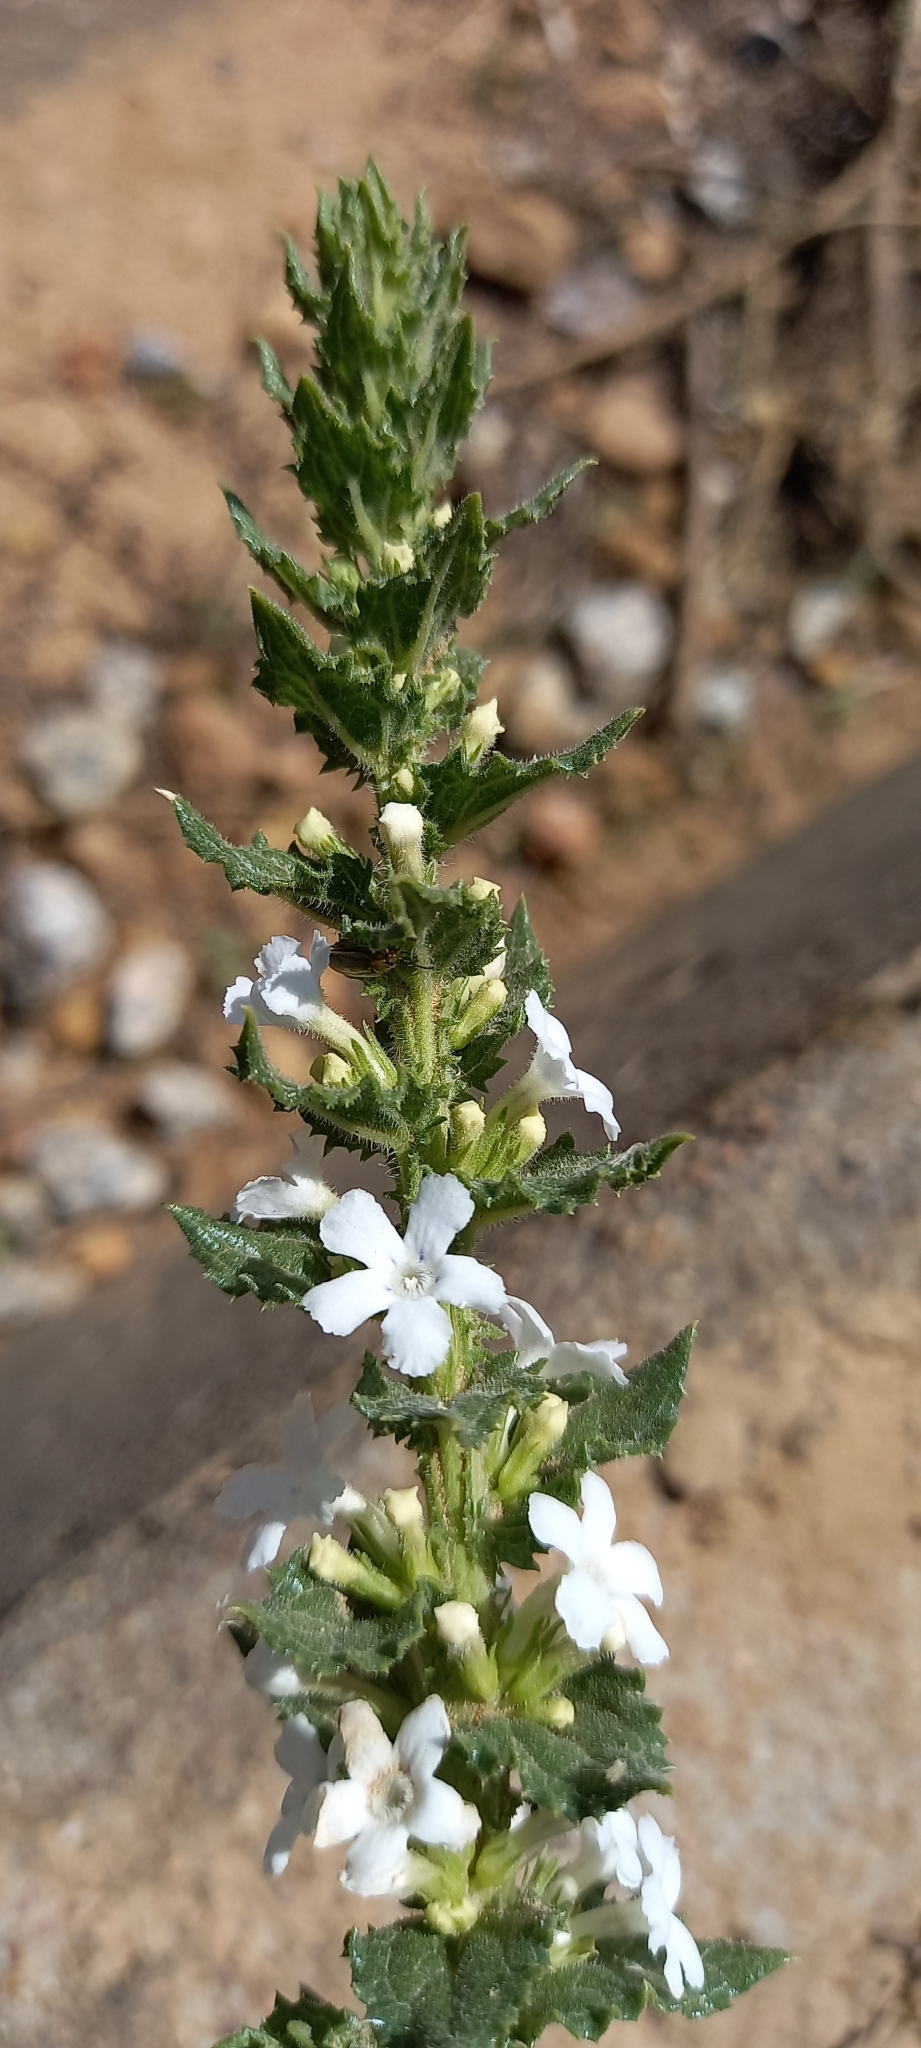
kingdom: Plantae
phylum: Tracheophyta
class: Magnoliopsida
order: Lamiales
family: Scrophulariaceae
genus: Oftia
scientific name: Oftia africana
